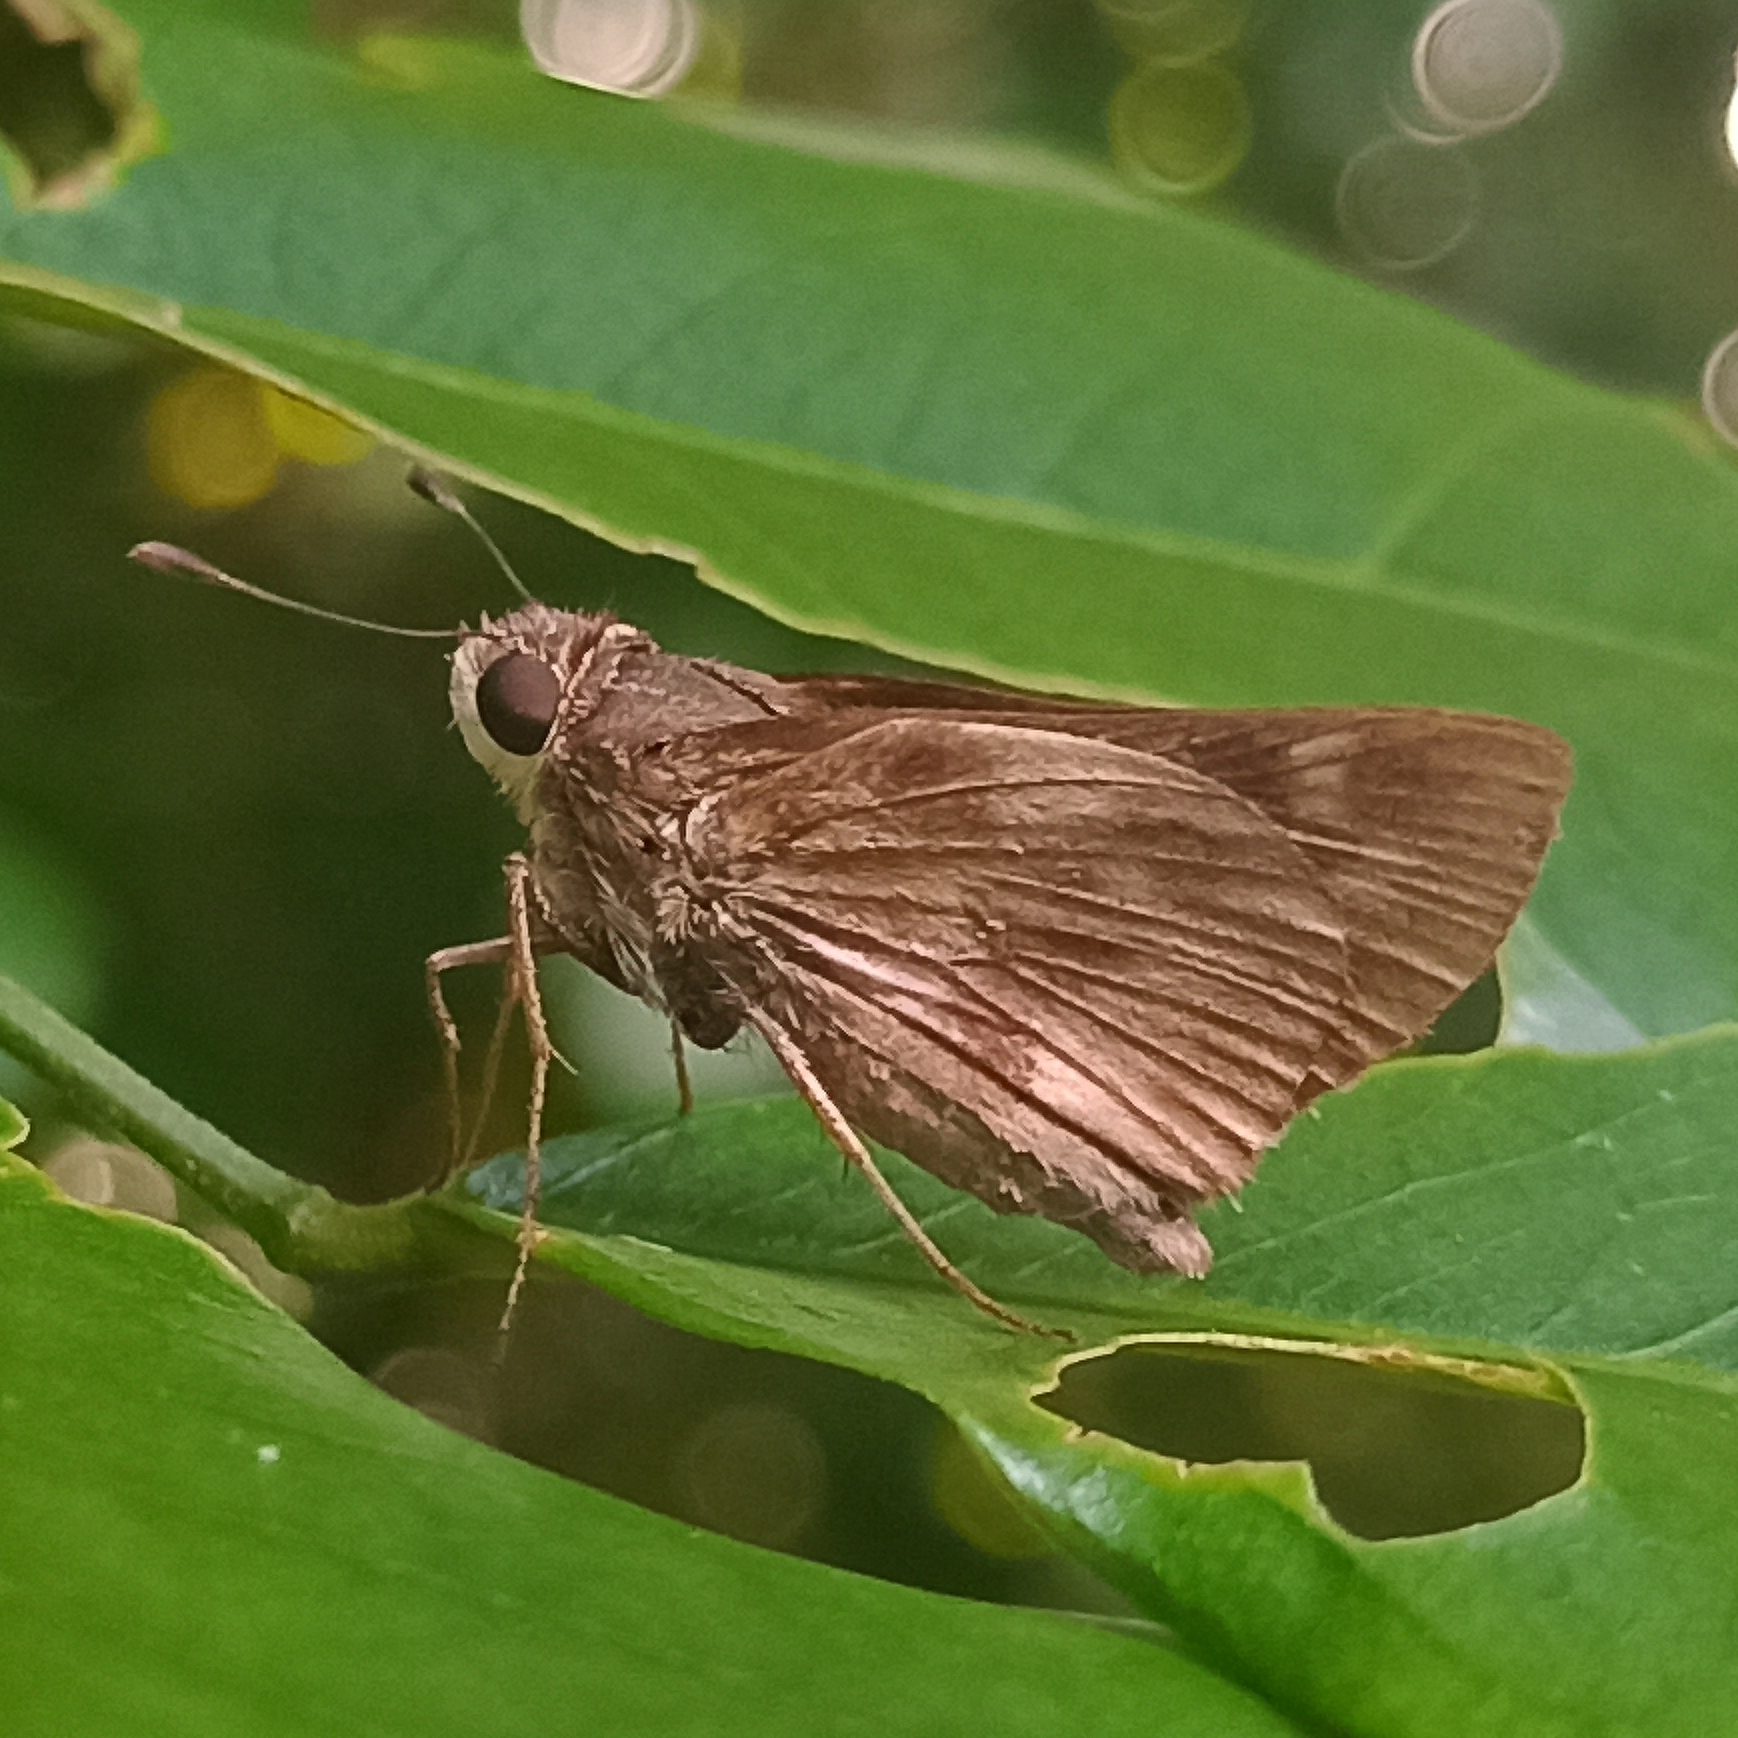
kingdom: Animalia
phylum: Arthropoda
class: Insecta
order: Lepidoptera
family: Hesperiidae
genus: Pompeius
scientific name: Pompeius pompeius
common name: Pompeius skipper
